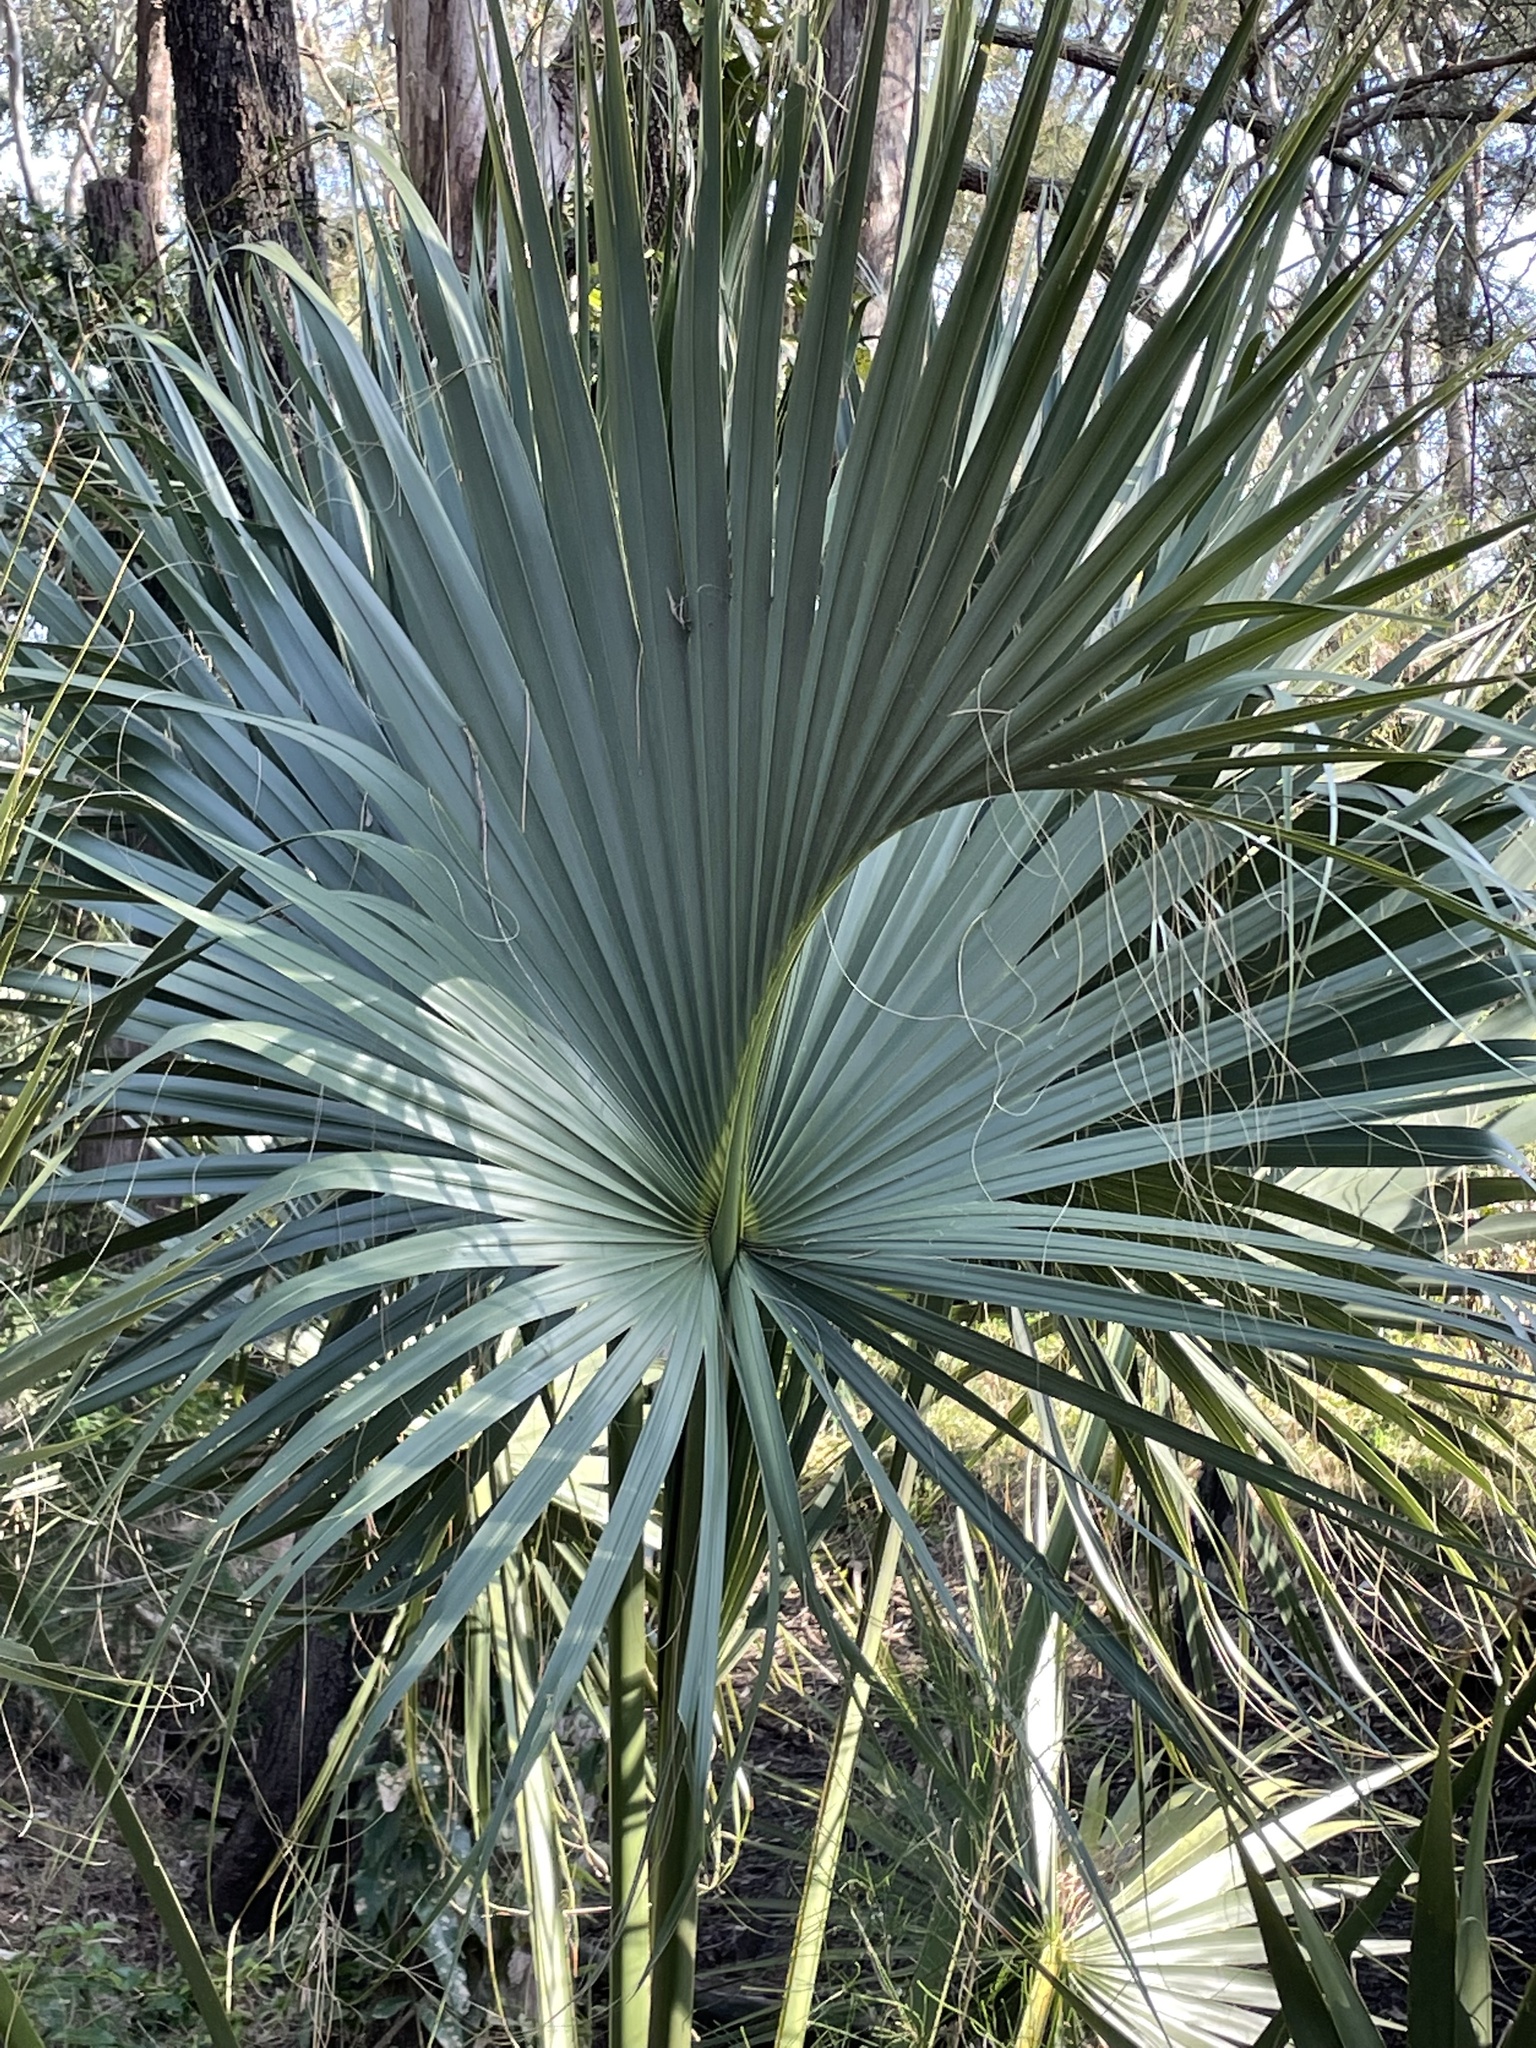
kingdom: Plantae
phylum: Tracheophyta
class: Liliopsida
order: Arecales
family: Arecaceae
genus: Livistona
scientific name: Livistona australis
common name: Cabbage fan palm
